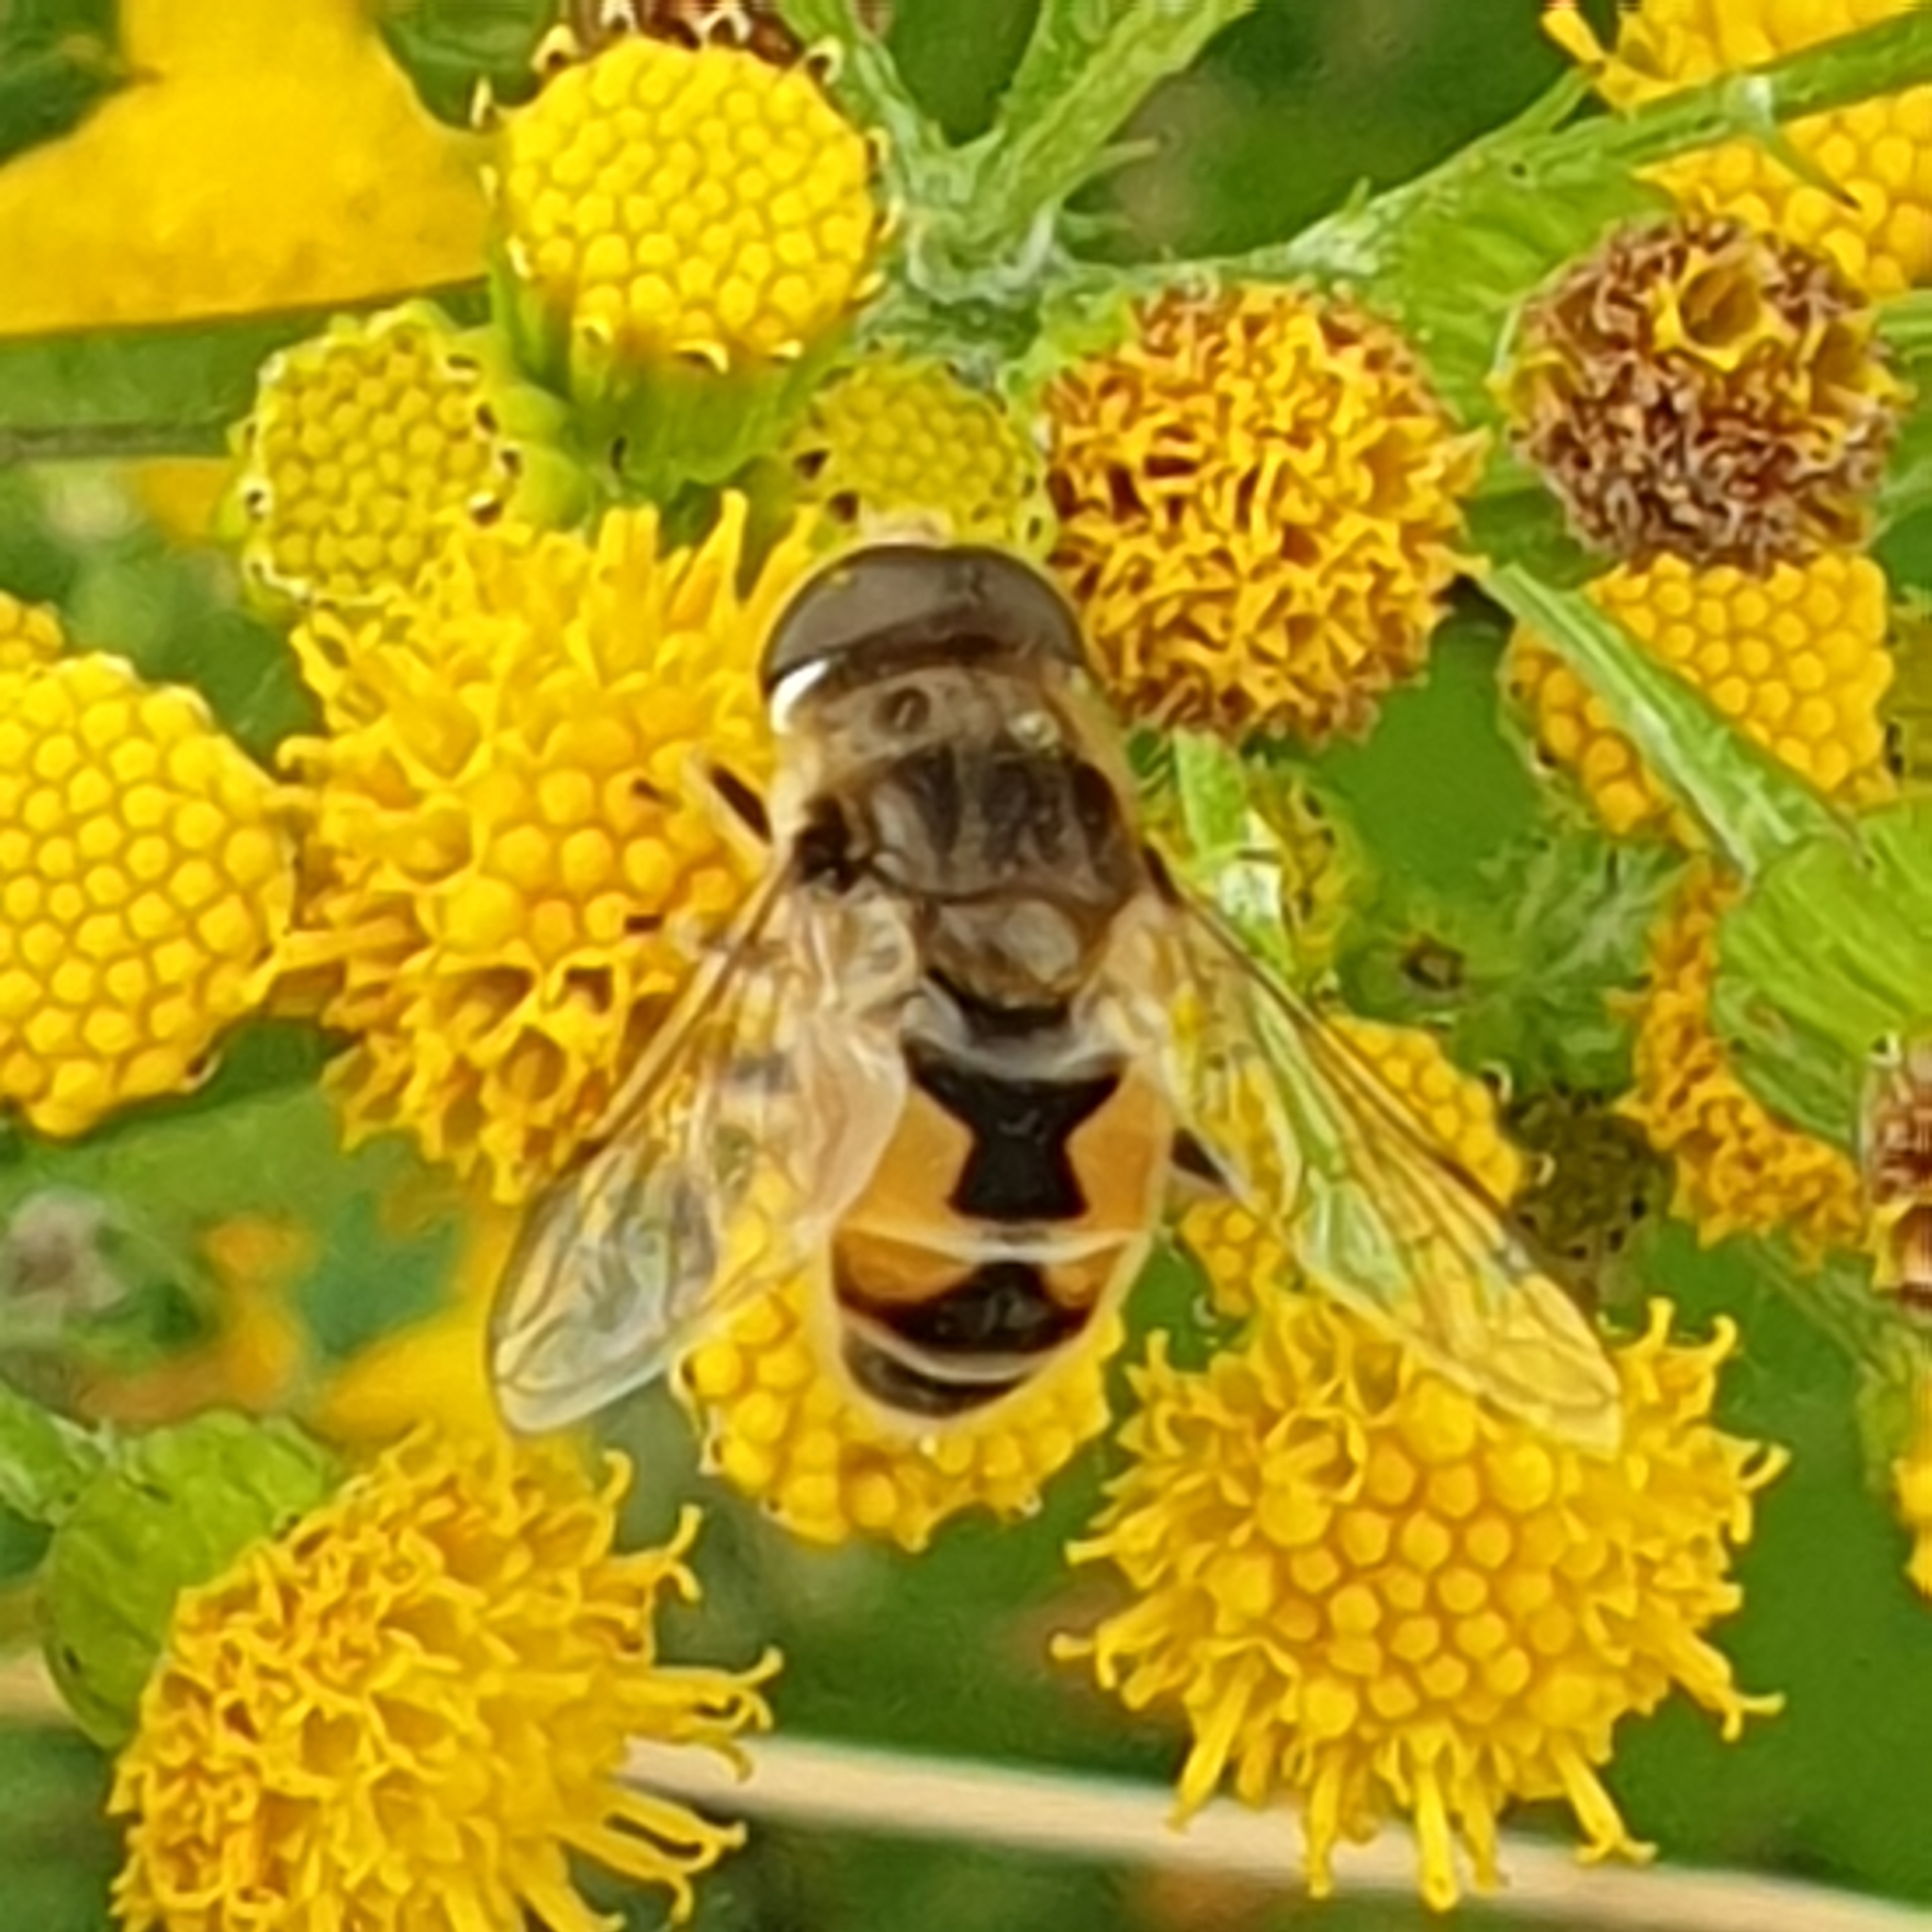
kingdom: Animalia
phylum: Arthropoda
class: Insecta
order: Diptera
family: Syrphidae
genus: Eristalis
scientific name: Eristalis arbustorum
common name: Hover fly
